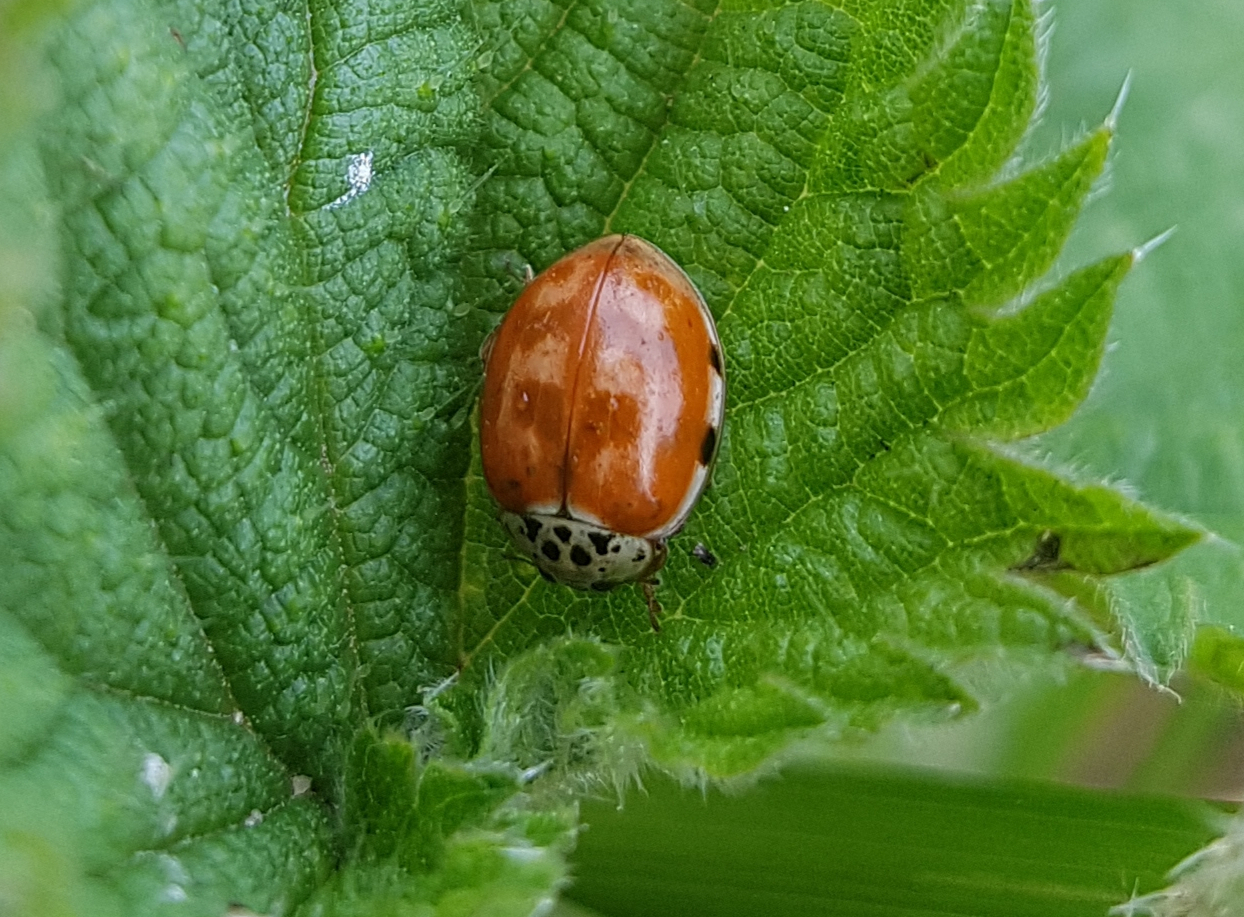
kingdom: Animalia
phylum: Arthropoda
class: Insecta
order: Coleoptera
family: Coccinellidae
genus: Harmonia
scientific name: Harmonia quadripunctata
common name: Cream-streaked ladybird
